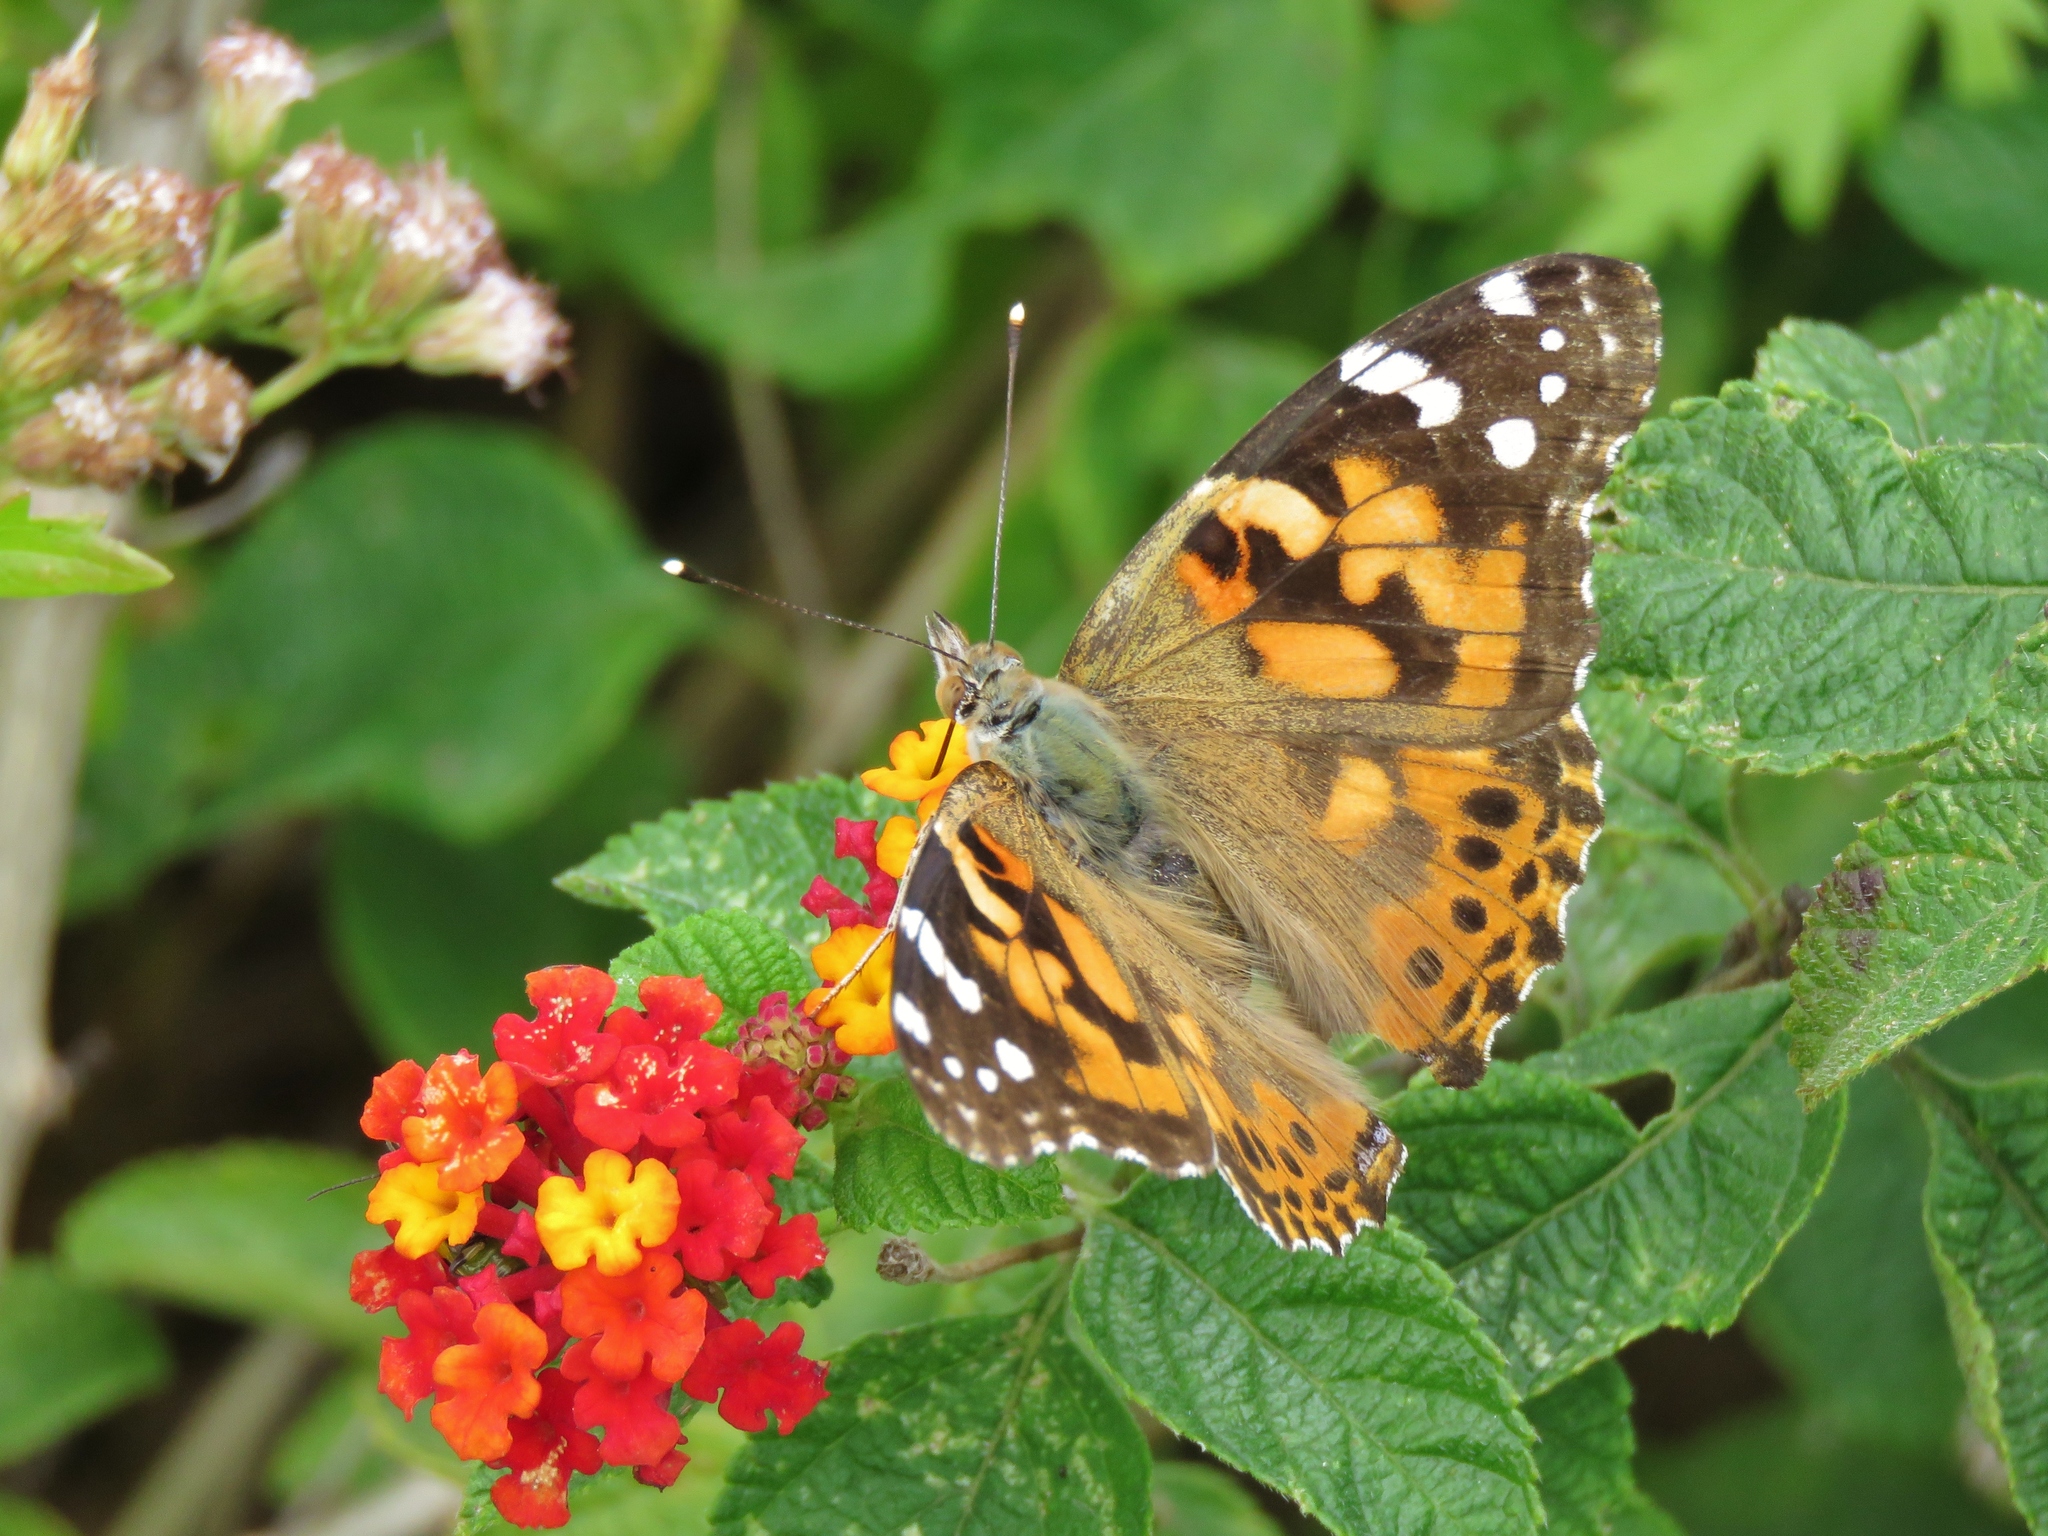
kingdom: Animalia
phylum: Arthropoda
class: Insecta
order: Lepidoptera
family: Nymphalidae
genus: Vanessa
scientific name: Vanessa cardui
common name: Painted lady
